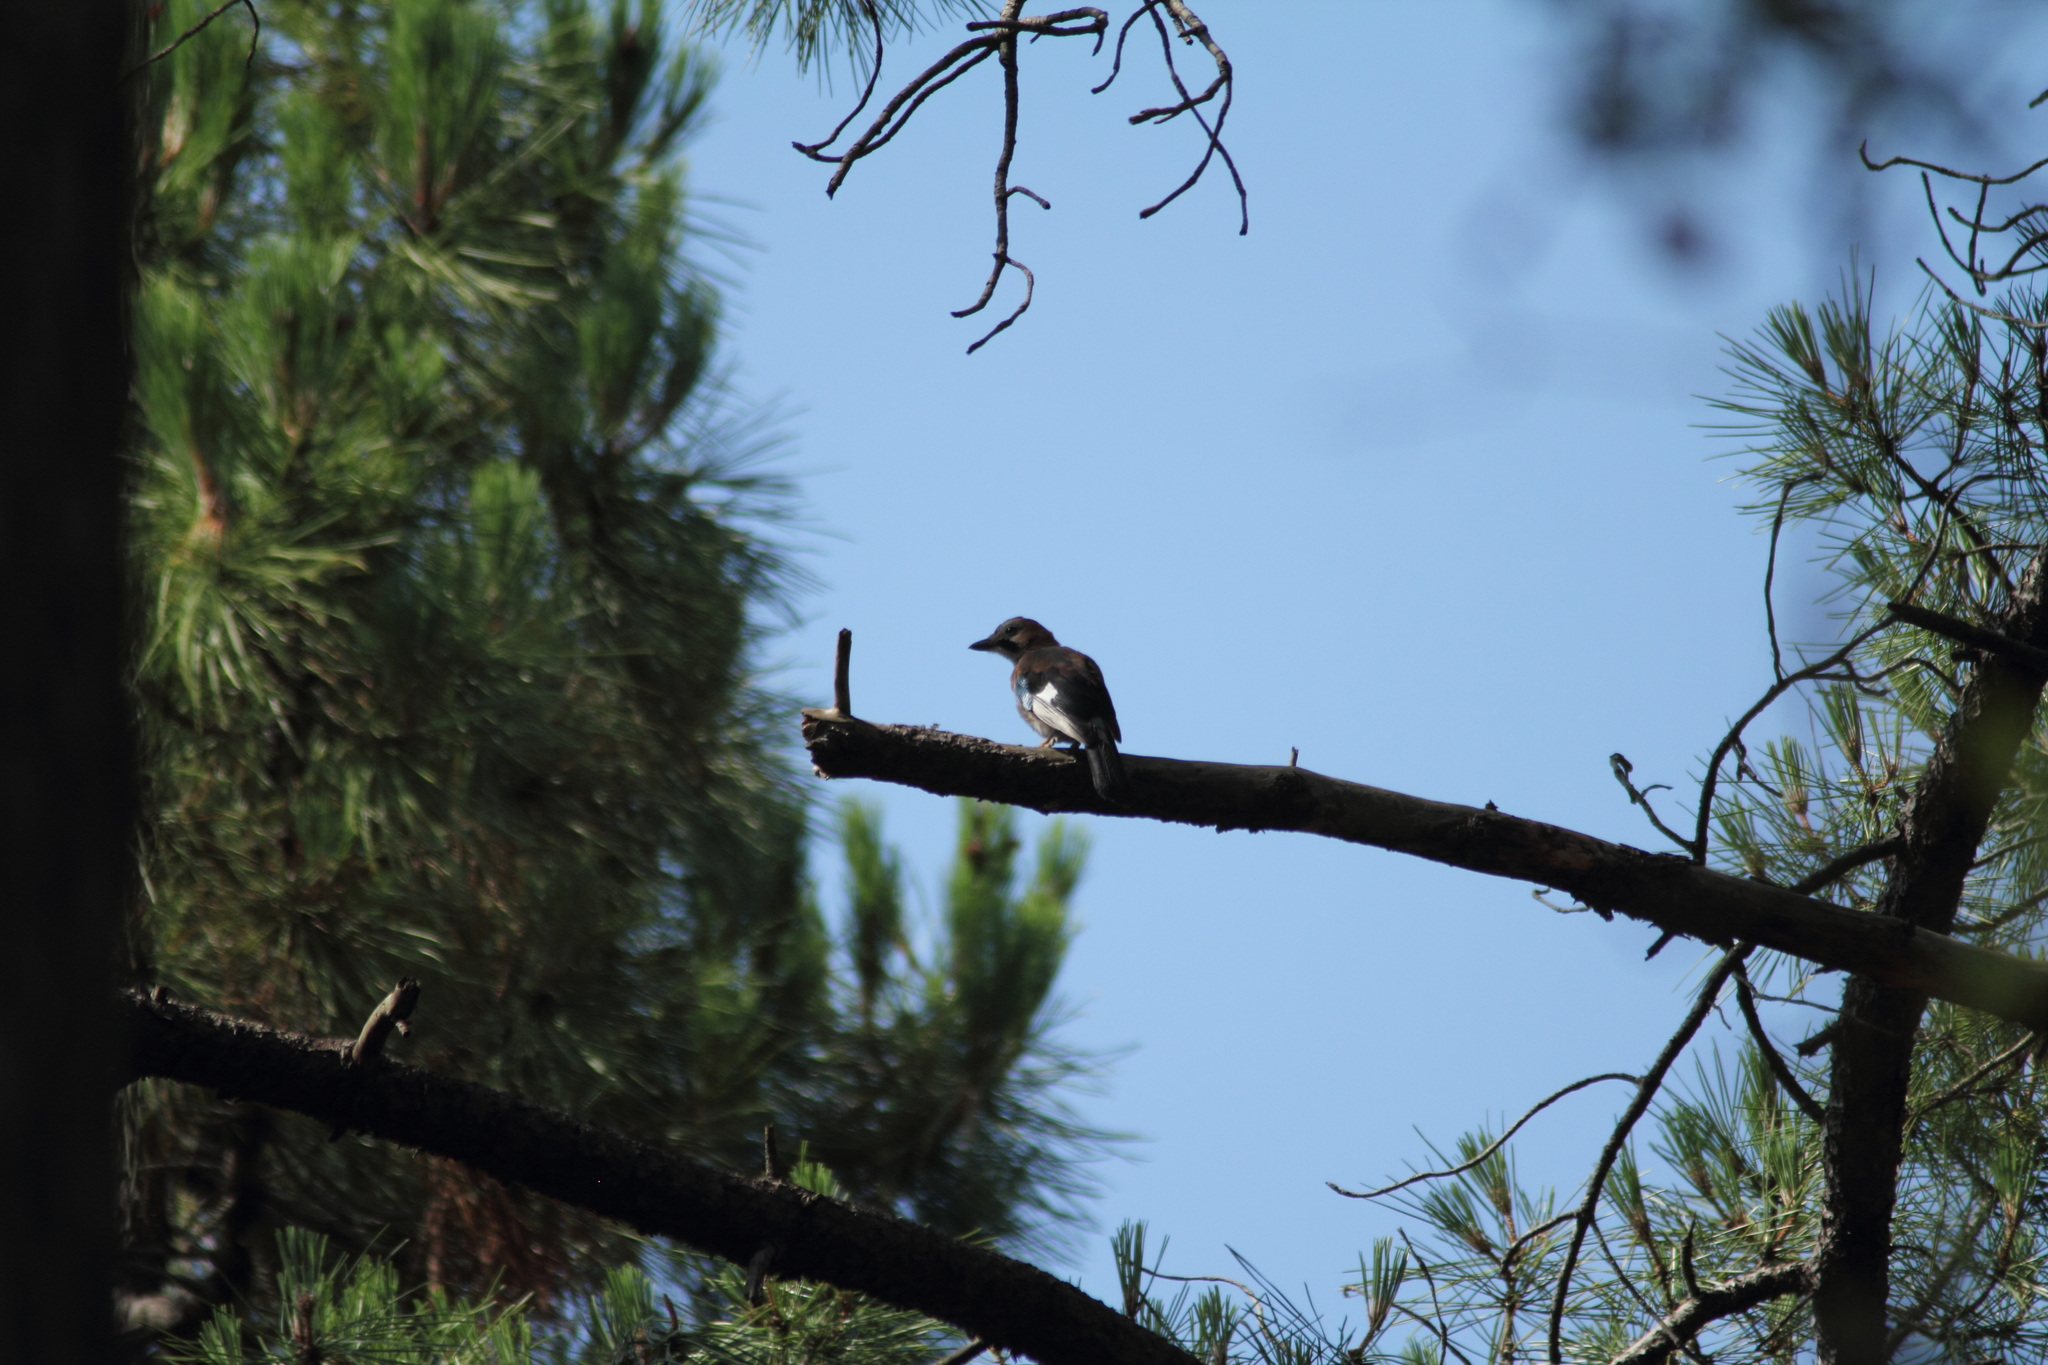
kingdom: Animalia
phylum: Chordata
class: Aves
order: Passeriformes
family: Corvidae
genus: Garrulus
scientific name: Garrulus glandarius
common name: Eurasian jay
